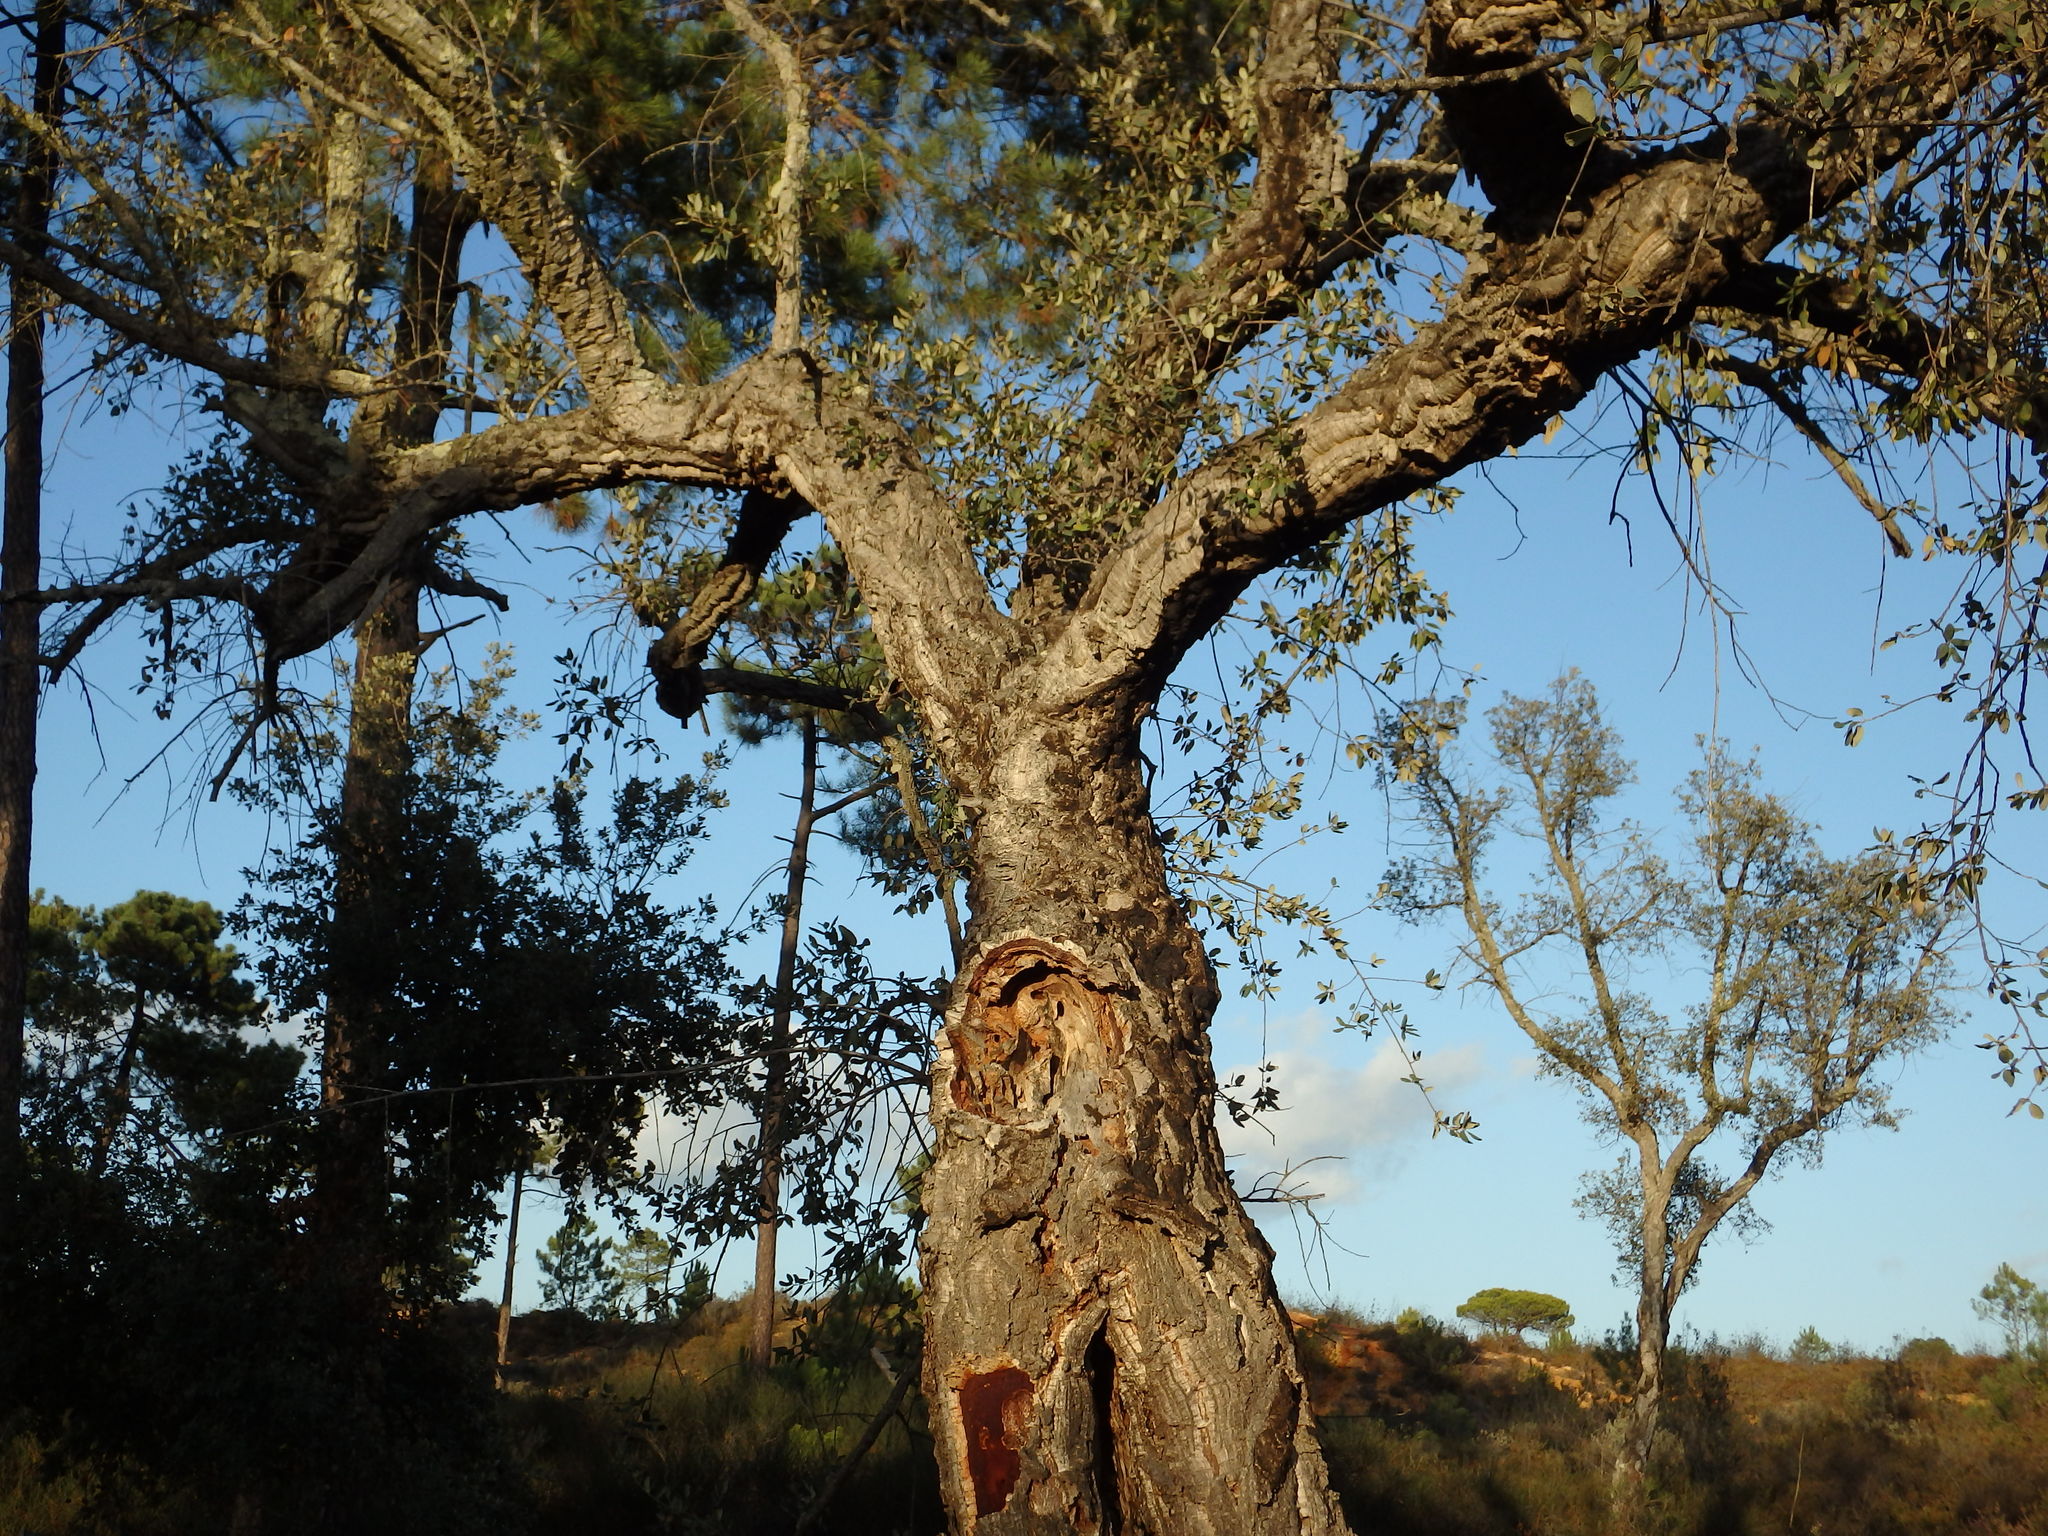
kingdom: Plantae
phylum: Tracheophyta
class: Magnoliopsida
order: Fagales
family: Fagaceae
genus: Quercus
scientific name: Quercus suber
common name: Cork oak
